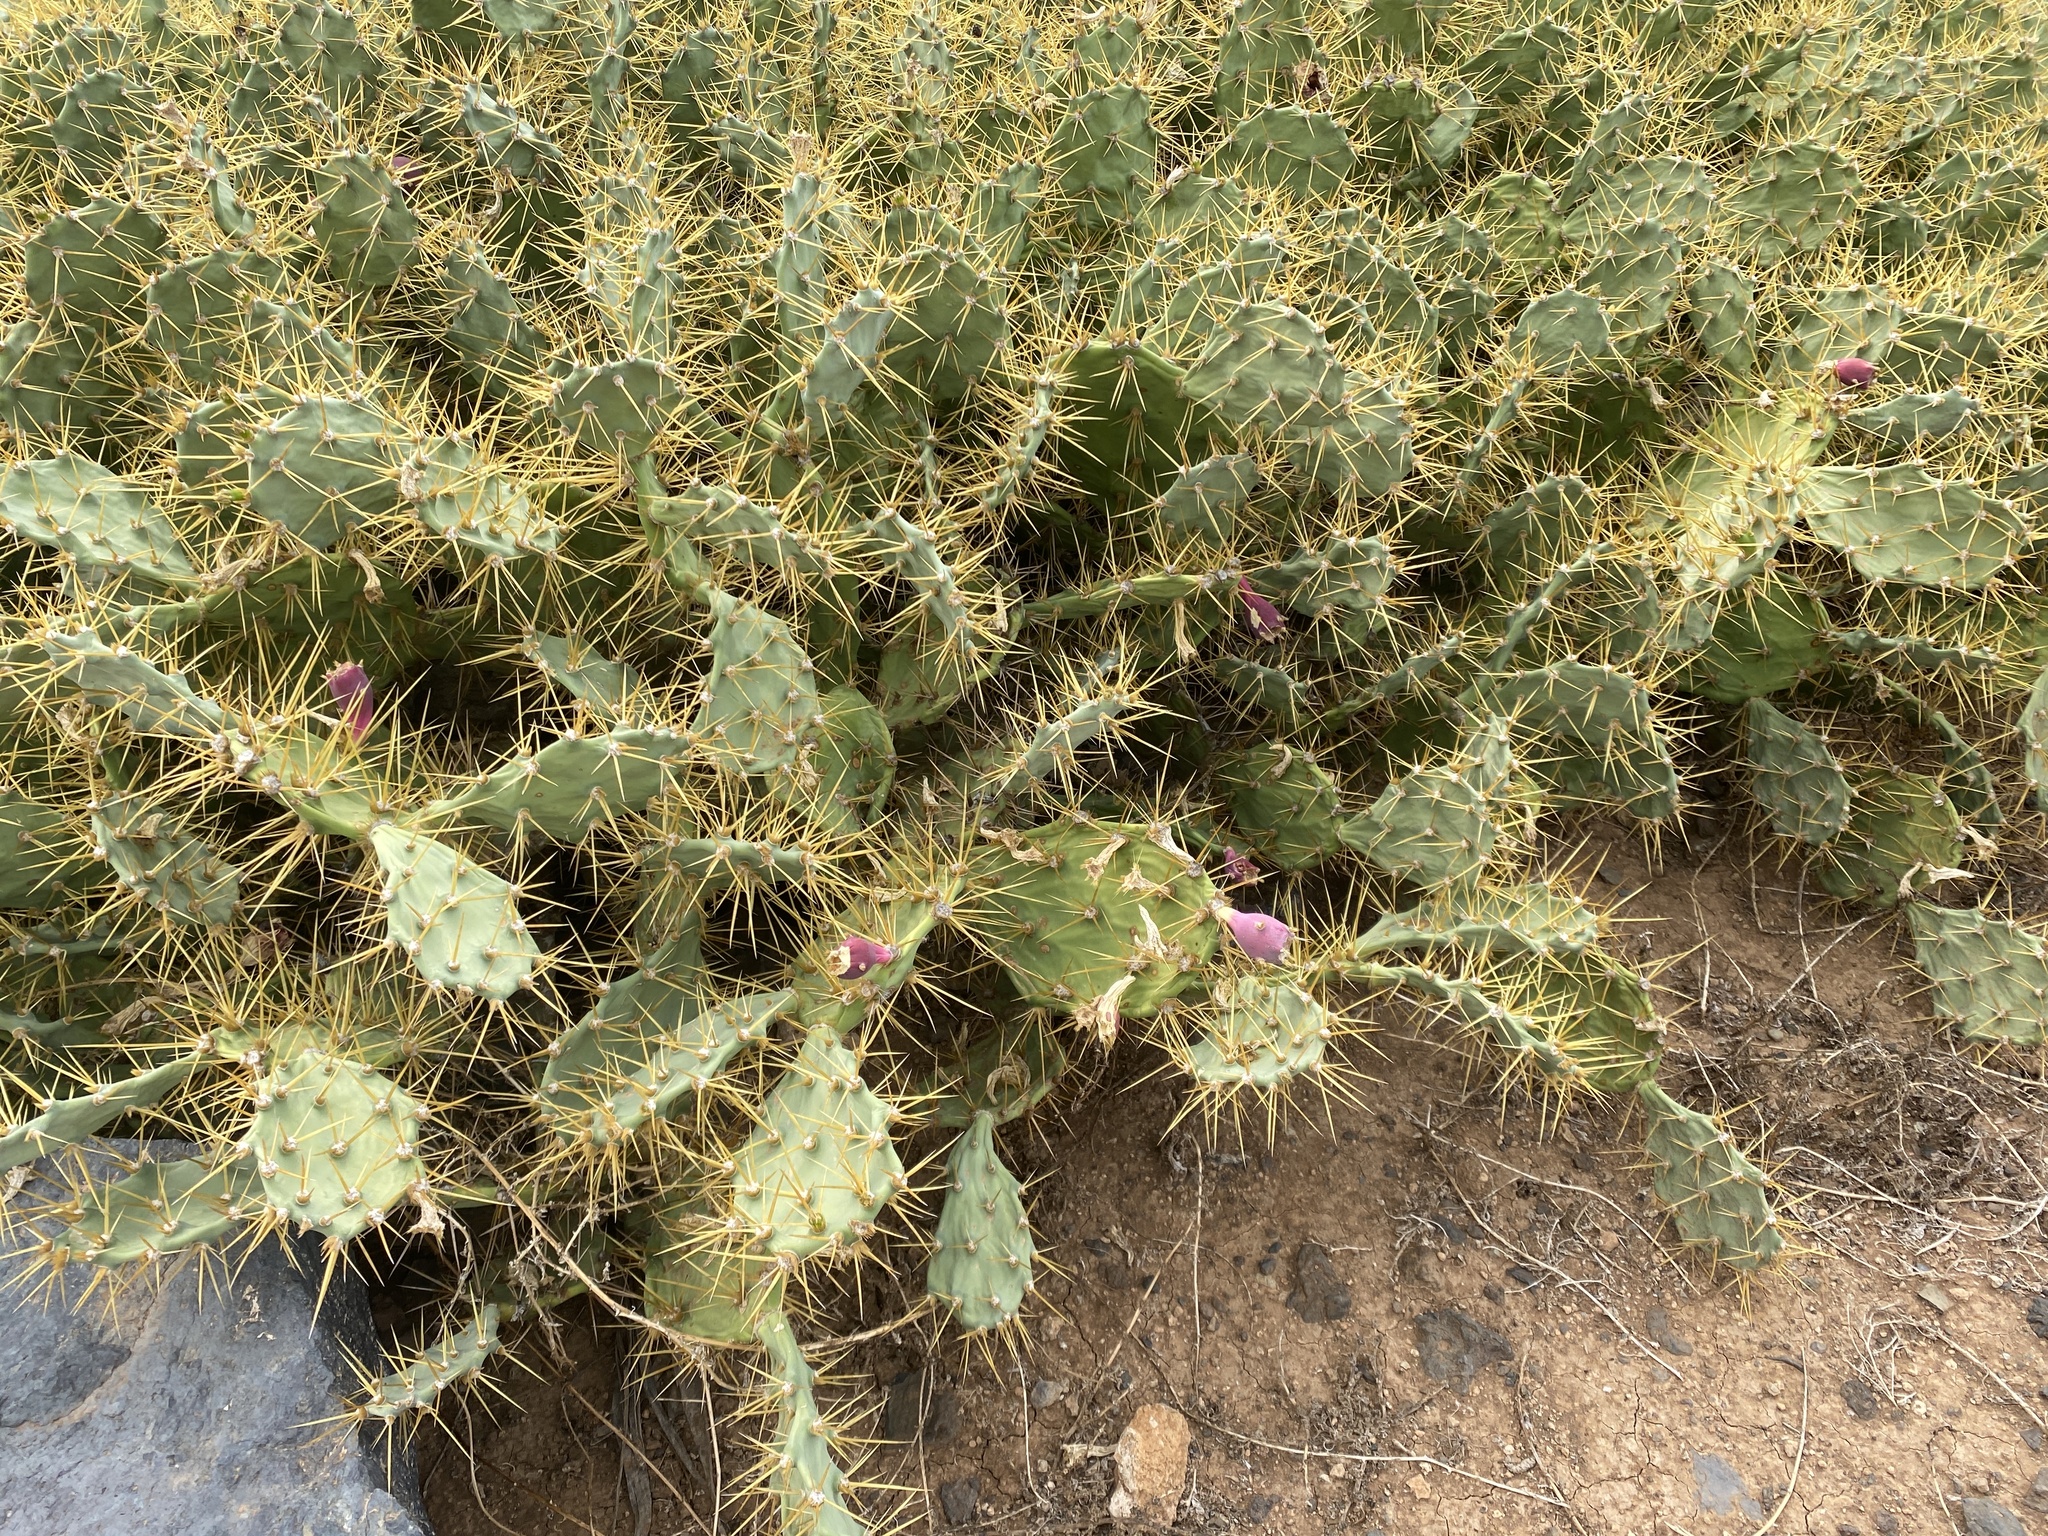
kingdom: Plantae
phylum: Tracheophyta
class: Magnoliopsida
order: Caryophyllales
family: Cactaceae
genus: Opuntia
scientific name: Opuntia stricta
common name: Erect pricklypear
